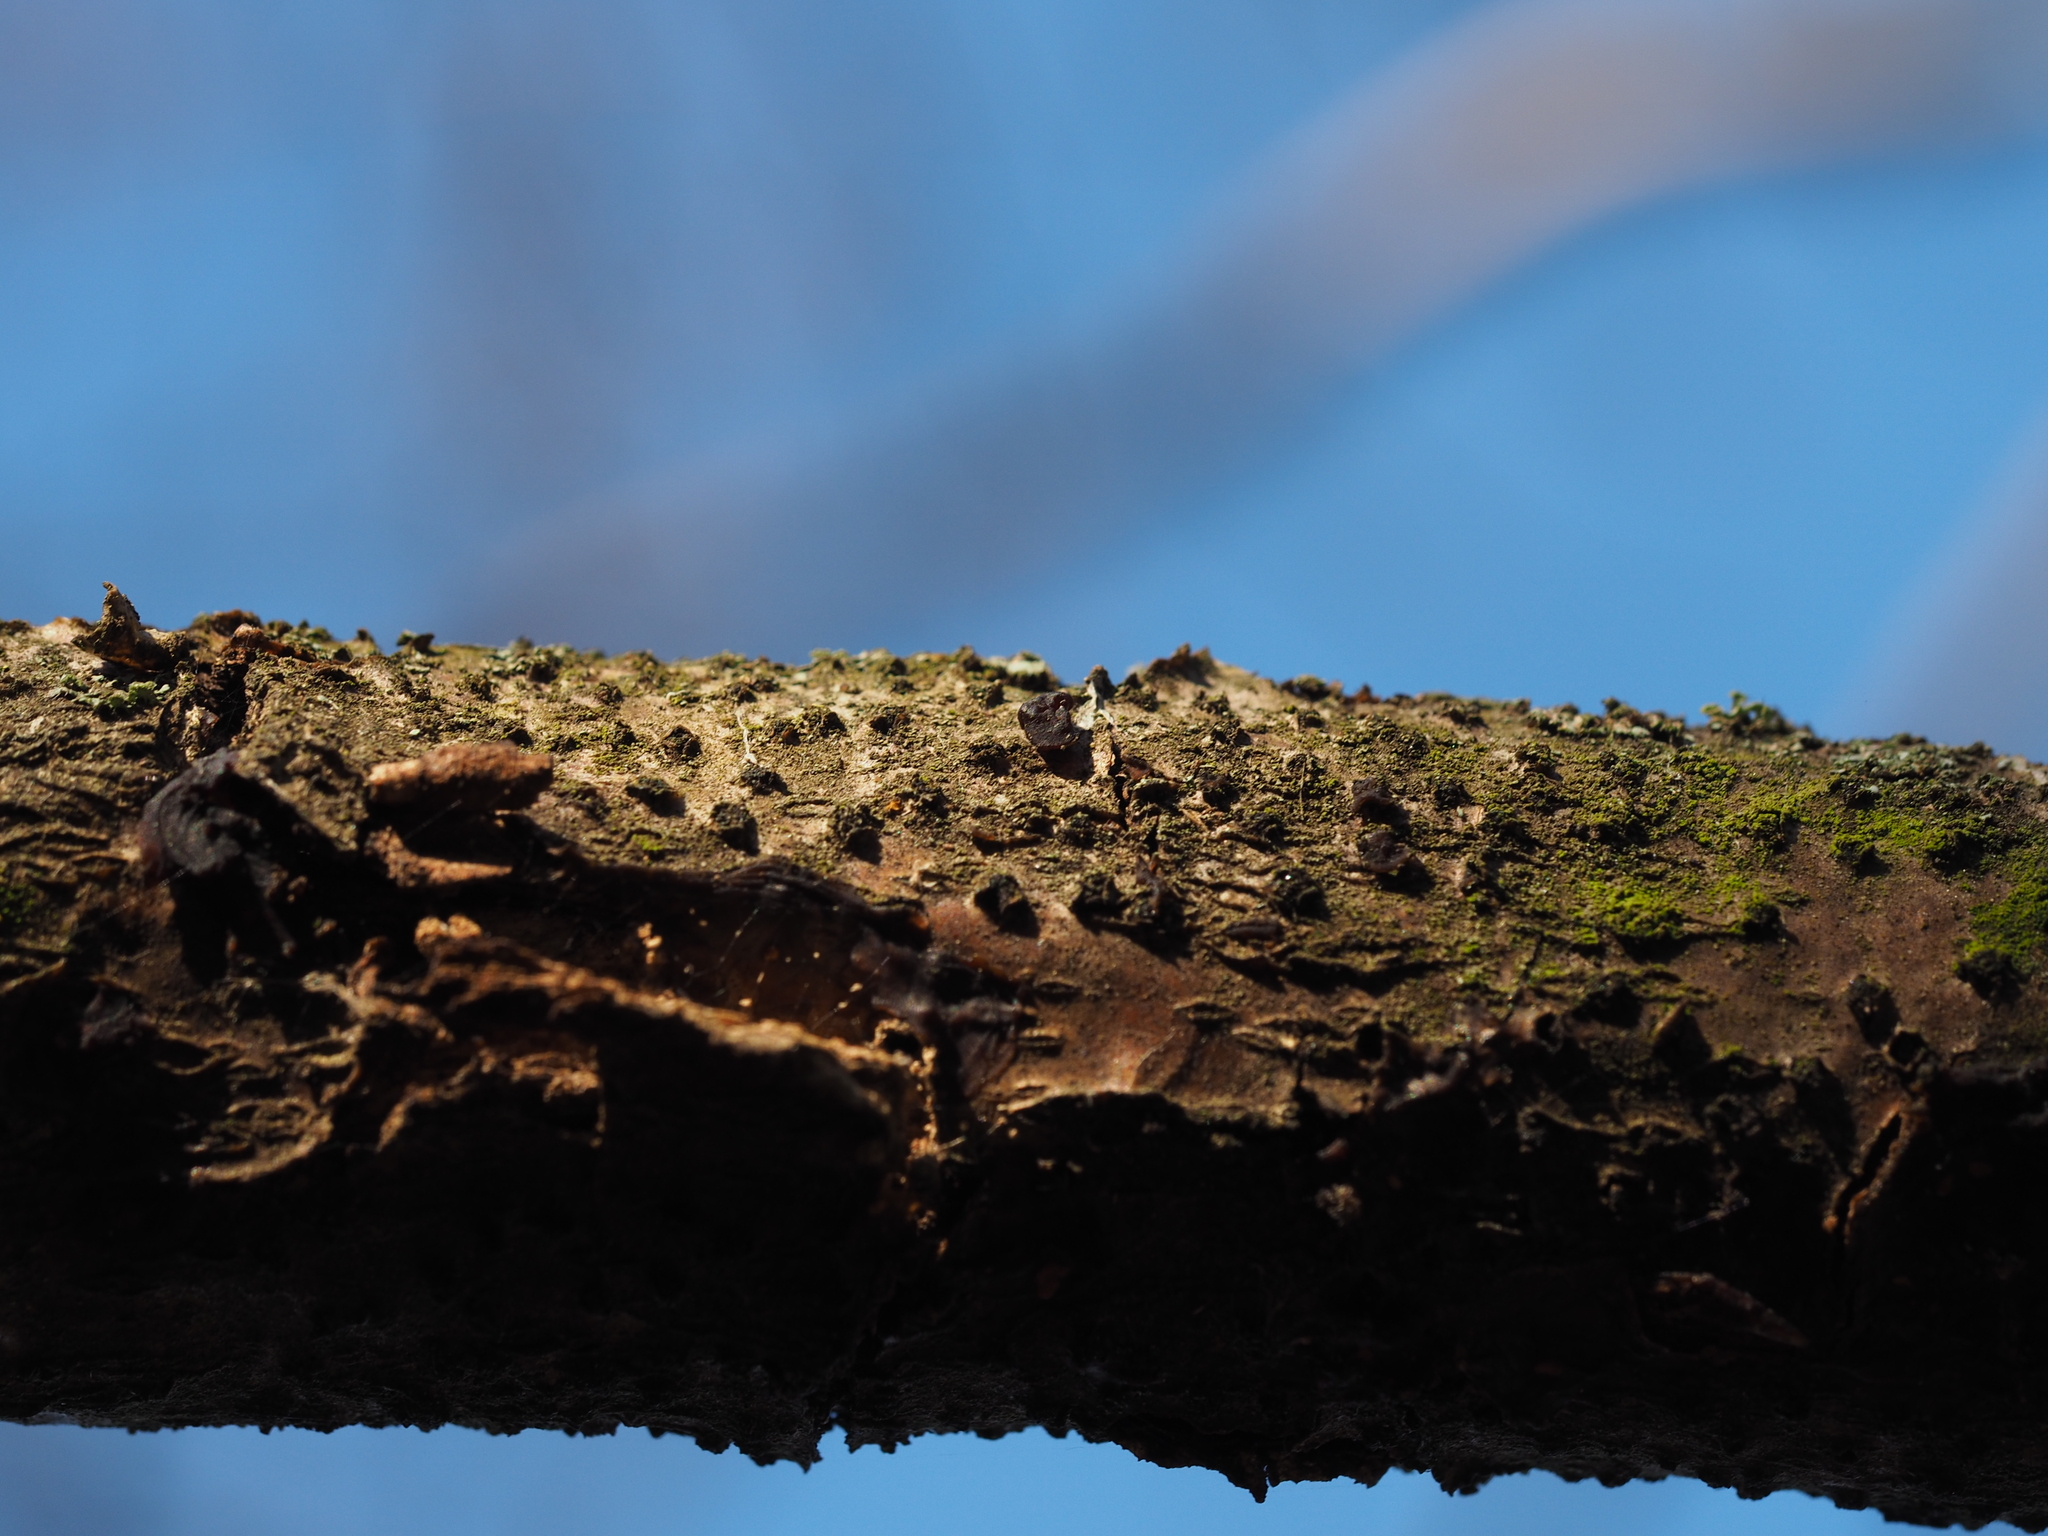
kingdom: Fungi
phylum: Ascomycota
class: Sordariomycetes
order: Xylariales
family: Diatrypaceae
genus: Diatrypella
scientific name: Diatrypella quercina
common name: Oak blackhead
